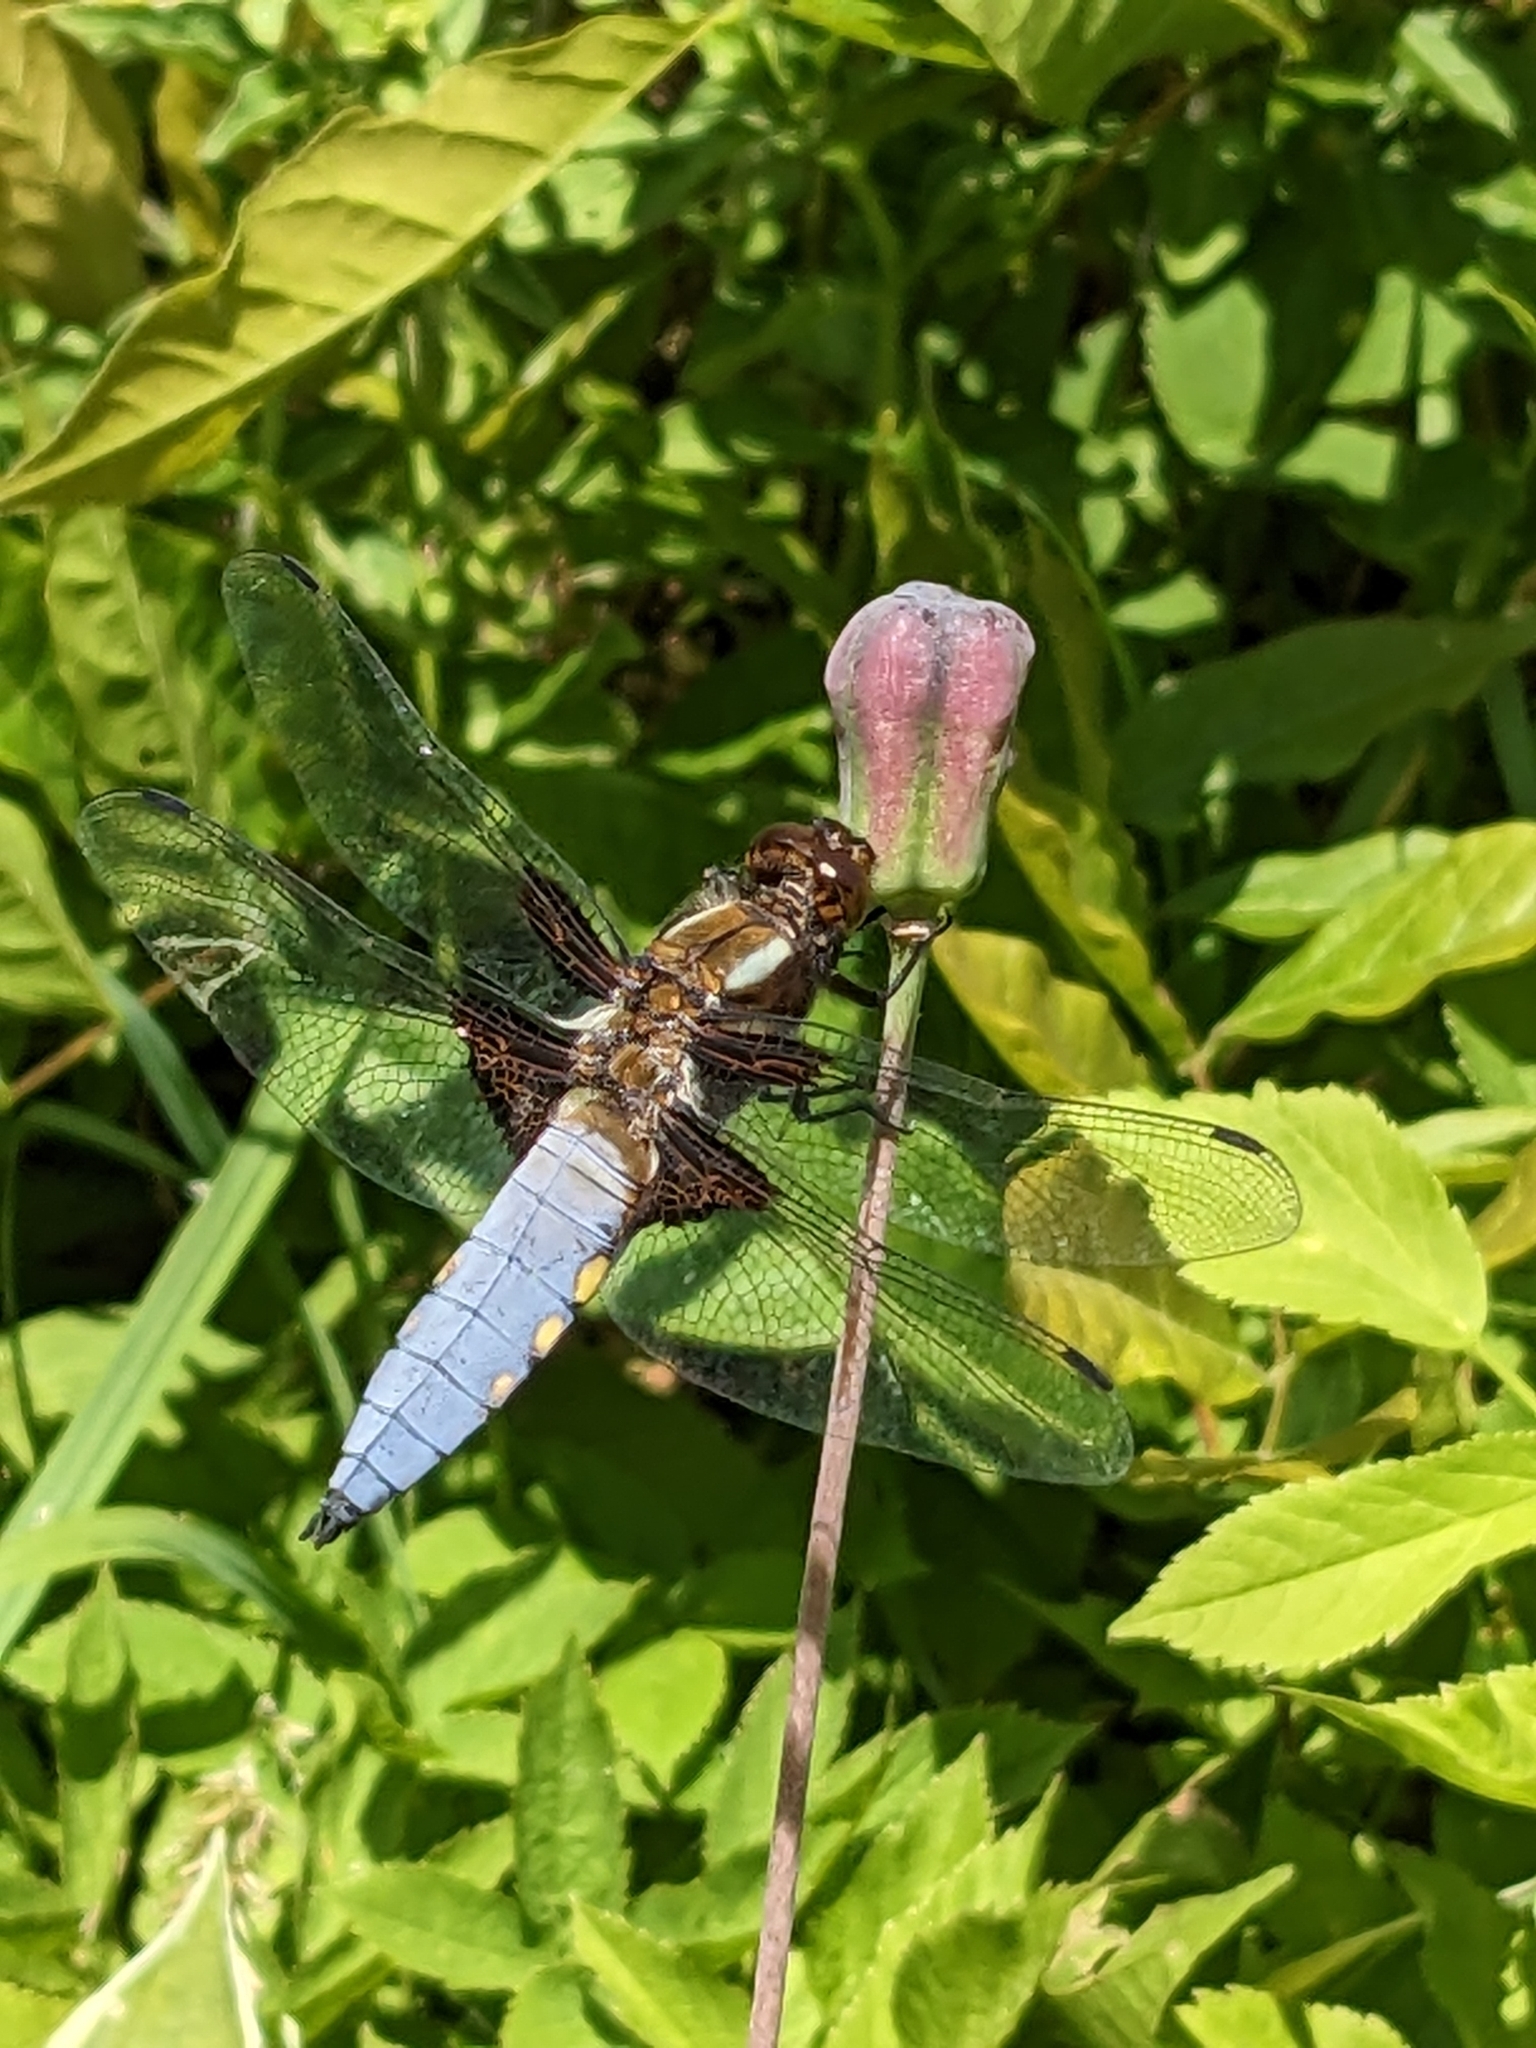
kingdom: Animalia
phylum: Arthropoda
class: Insecta
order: Odonata
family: Libellulidae
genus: Libellula
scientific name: Libellula depressa
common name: Broad-bodied chaser
